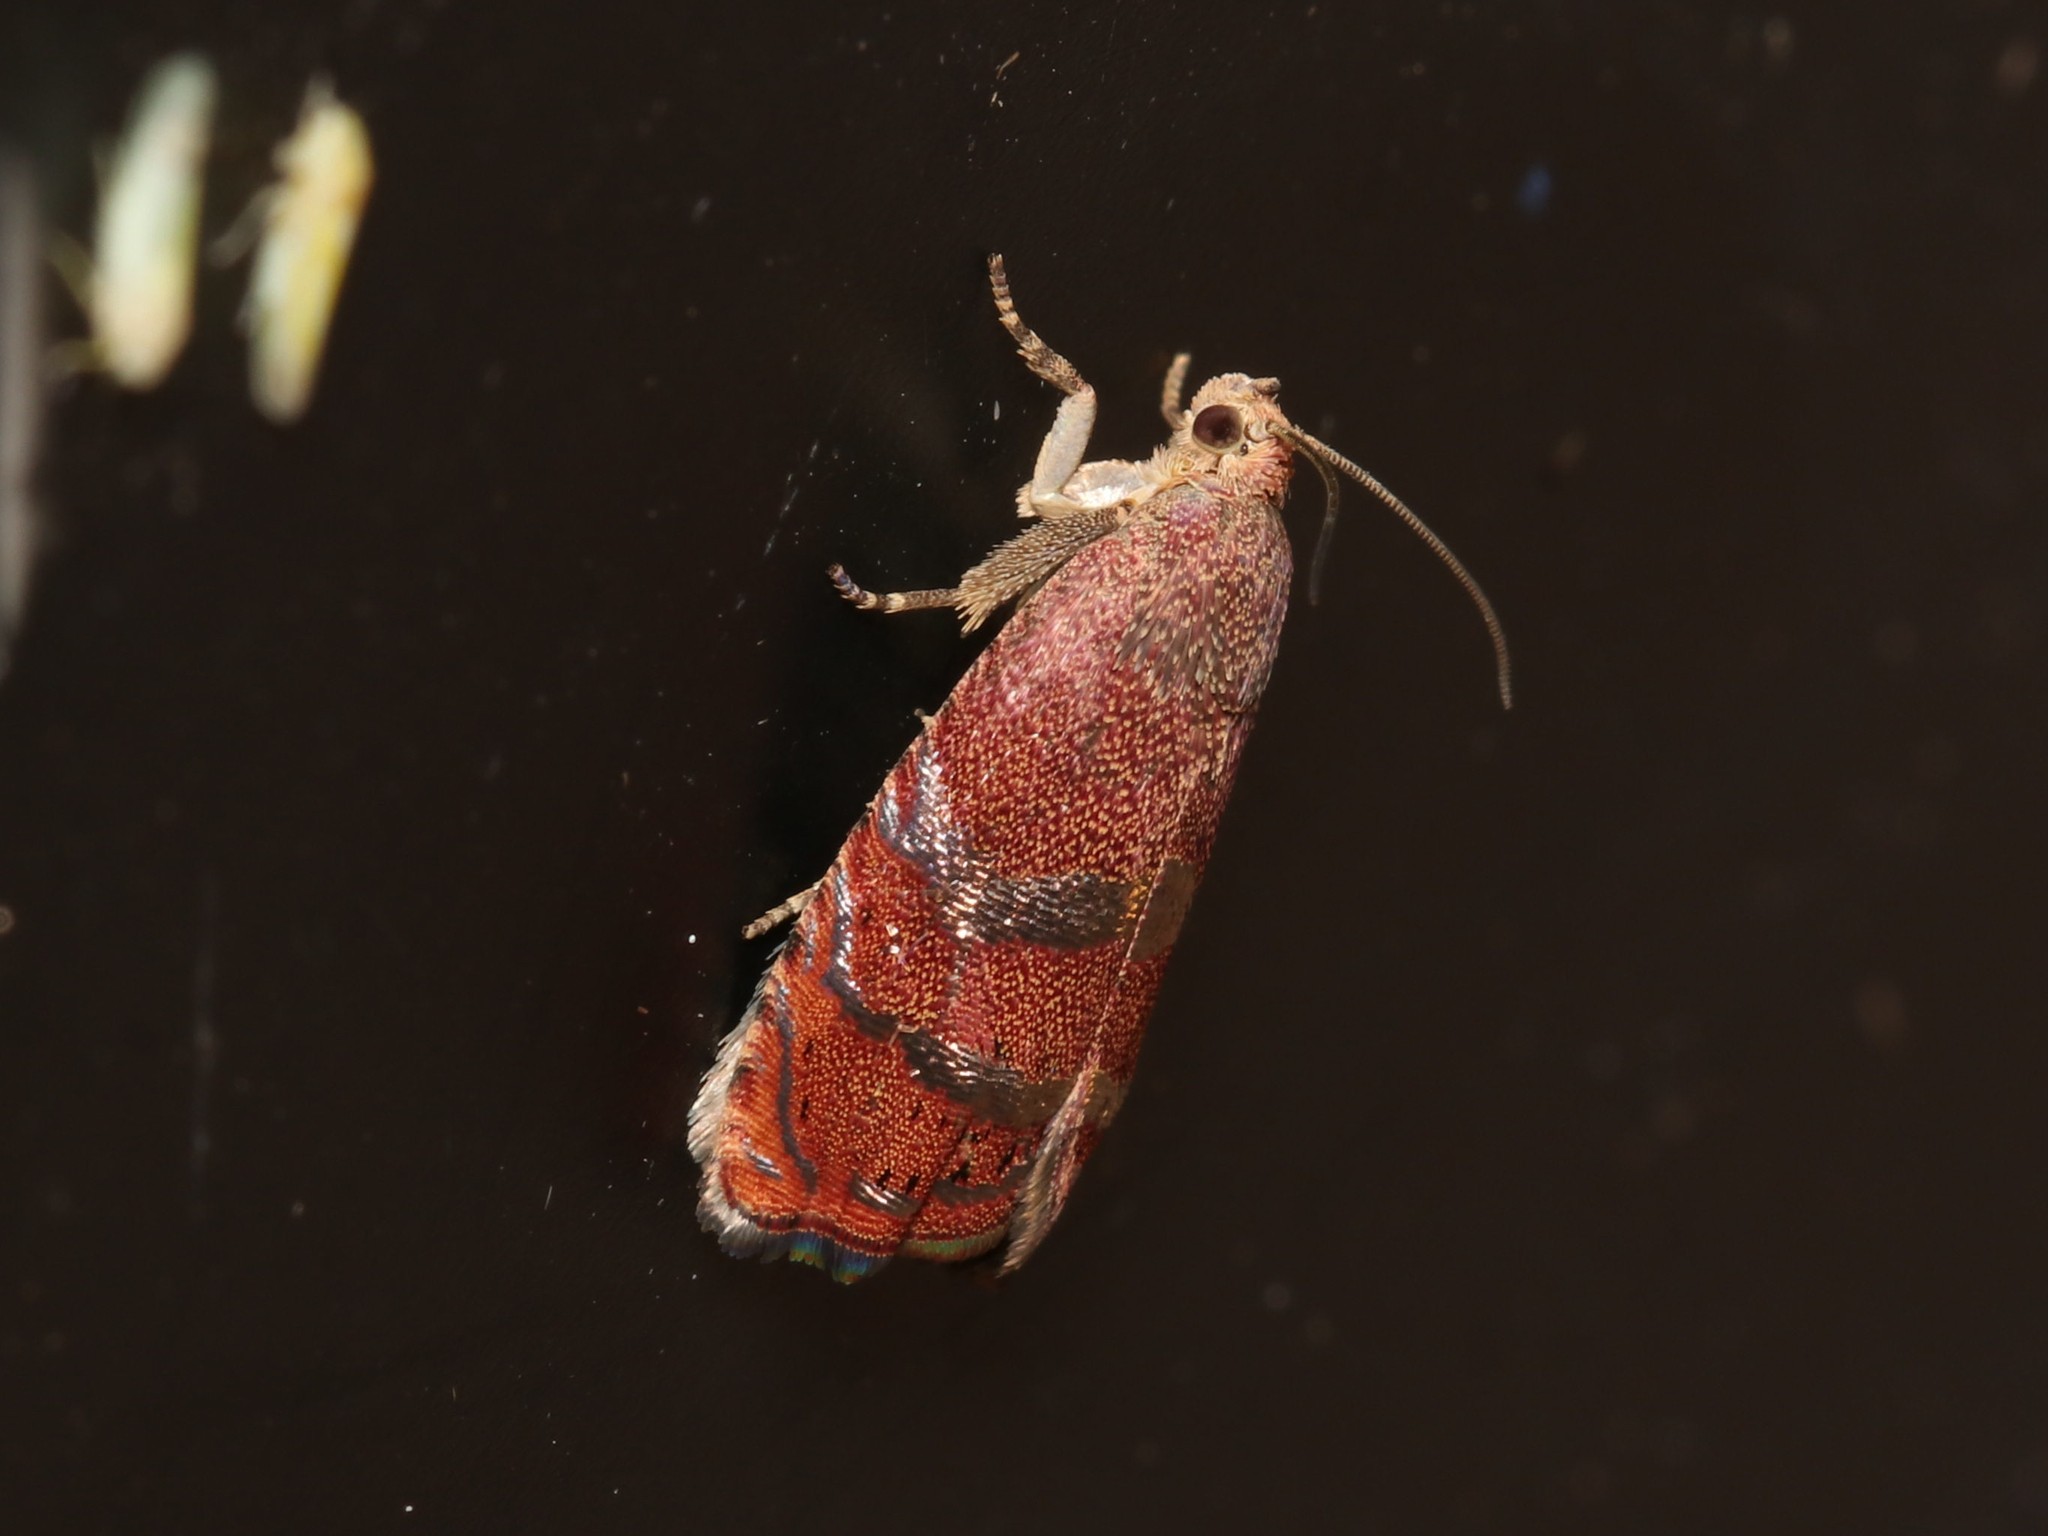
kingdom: Animalia
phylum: Arthropoda
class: Insecta
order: Lepidoptera
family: Tortricidae
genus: Cydia
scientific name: Cydia latiferreana
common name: Filbertworm moth
